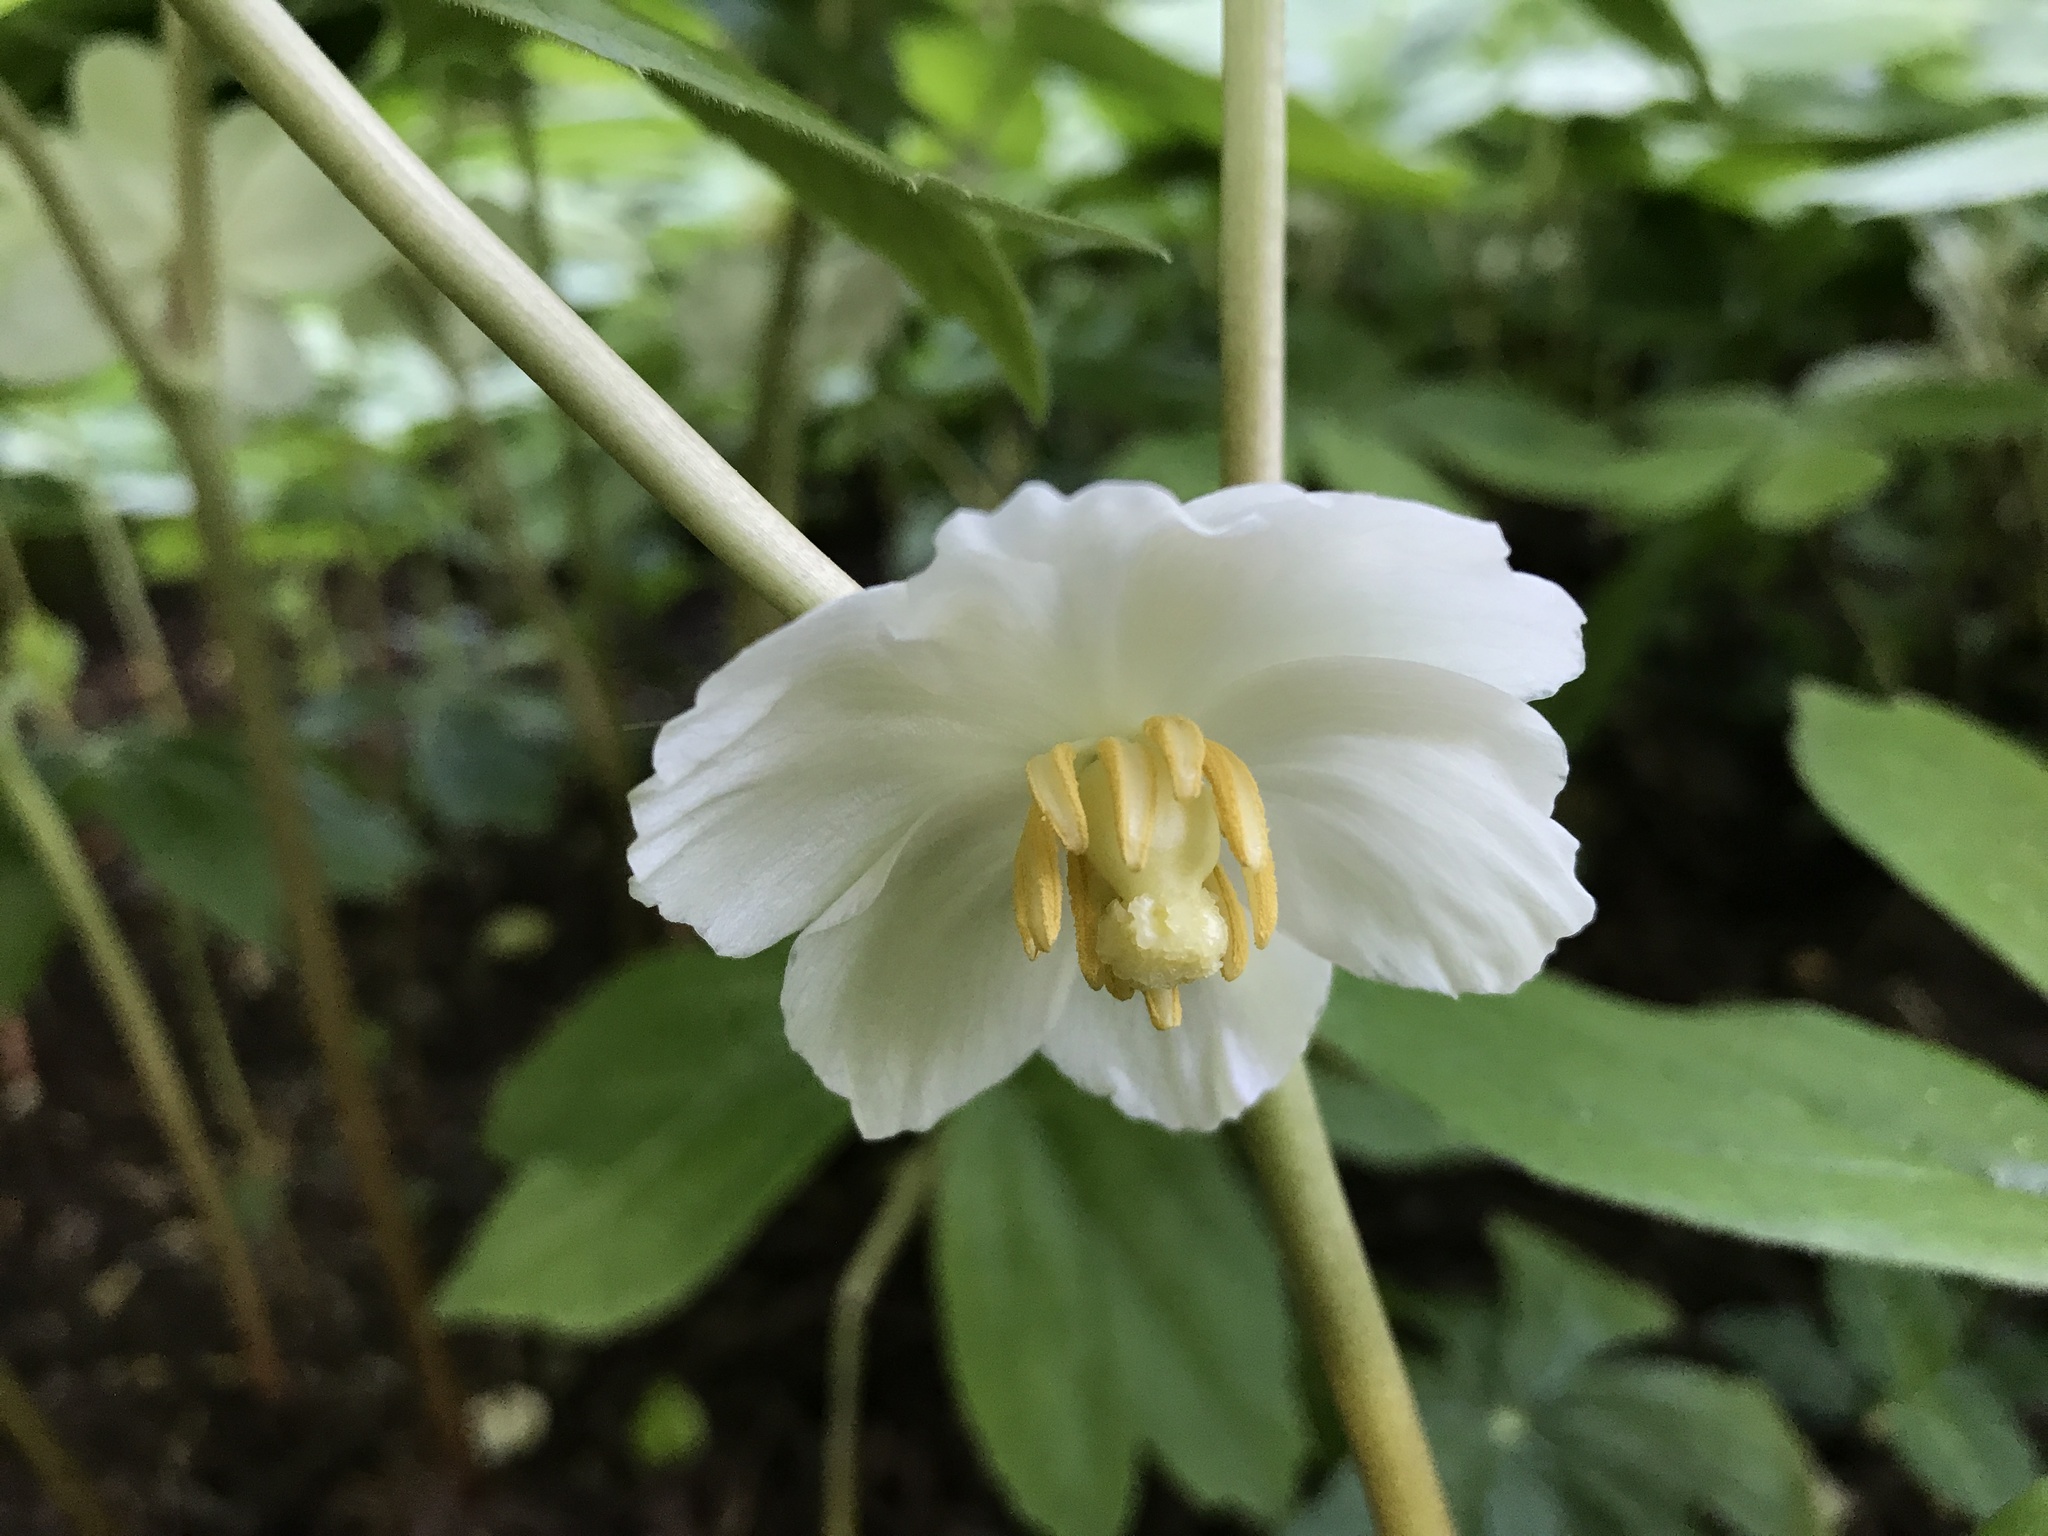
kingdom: Plantae
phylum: Tracheophyta
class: Magnoliopsida
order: Ranunculales
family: Berberidaceae
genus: Podophyllum
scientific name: Podophyllum peltatum
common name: Wild mandrake
